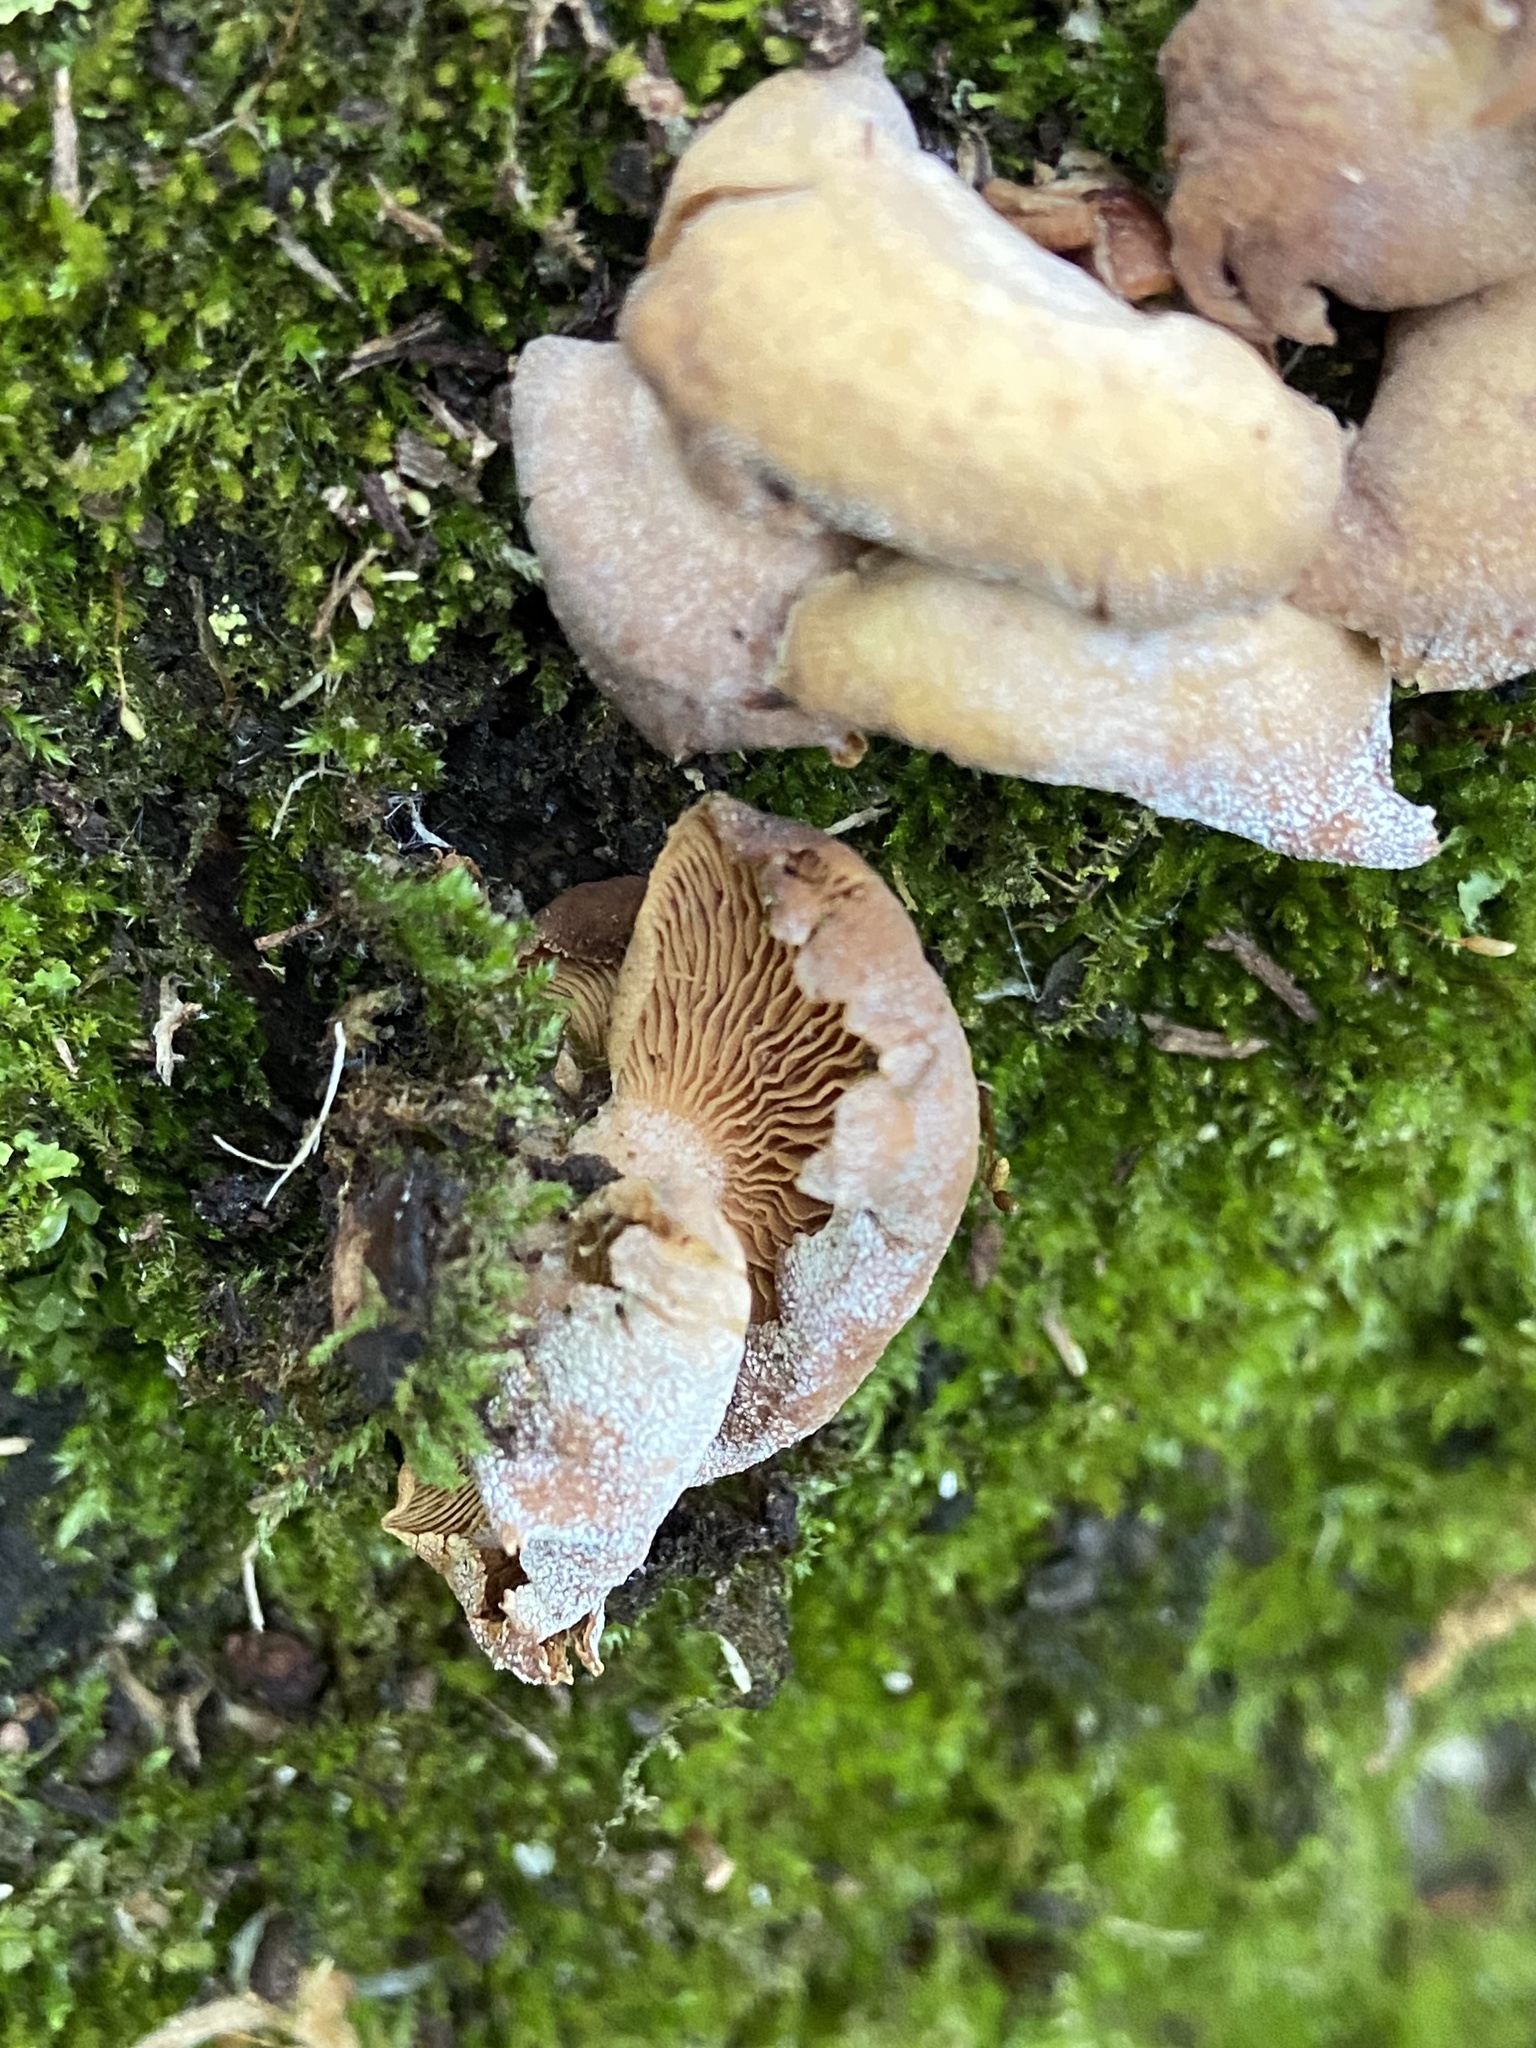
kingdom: Fungi
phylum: Basidiomycota
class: Agaricomycetes
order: Agaricales
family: Mycenaceae
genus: Panellus
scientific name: Panellus stipticus
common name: Bitter oysterling
